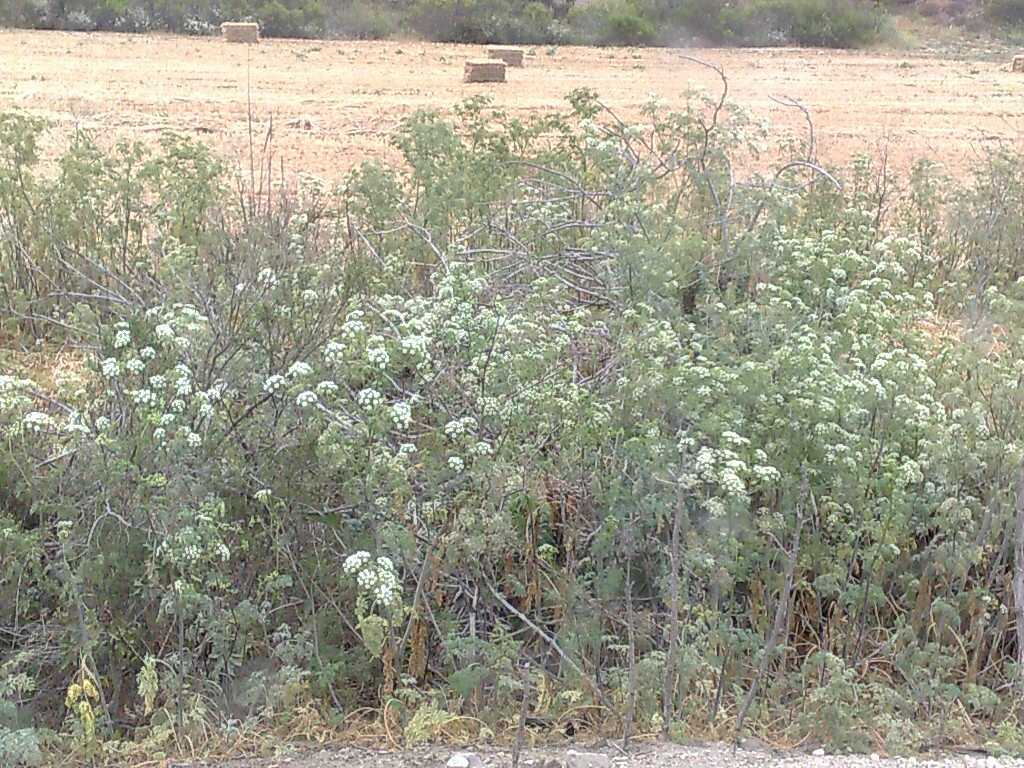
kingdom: Plantae
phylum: Tracheophyta
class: Magnoliopsida
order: Apiales
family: Apiaceae
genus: Conium
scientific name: Conium maculatum
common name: Hemlock
